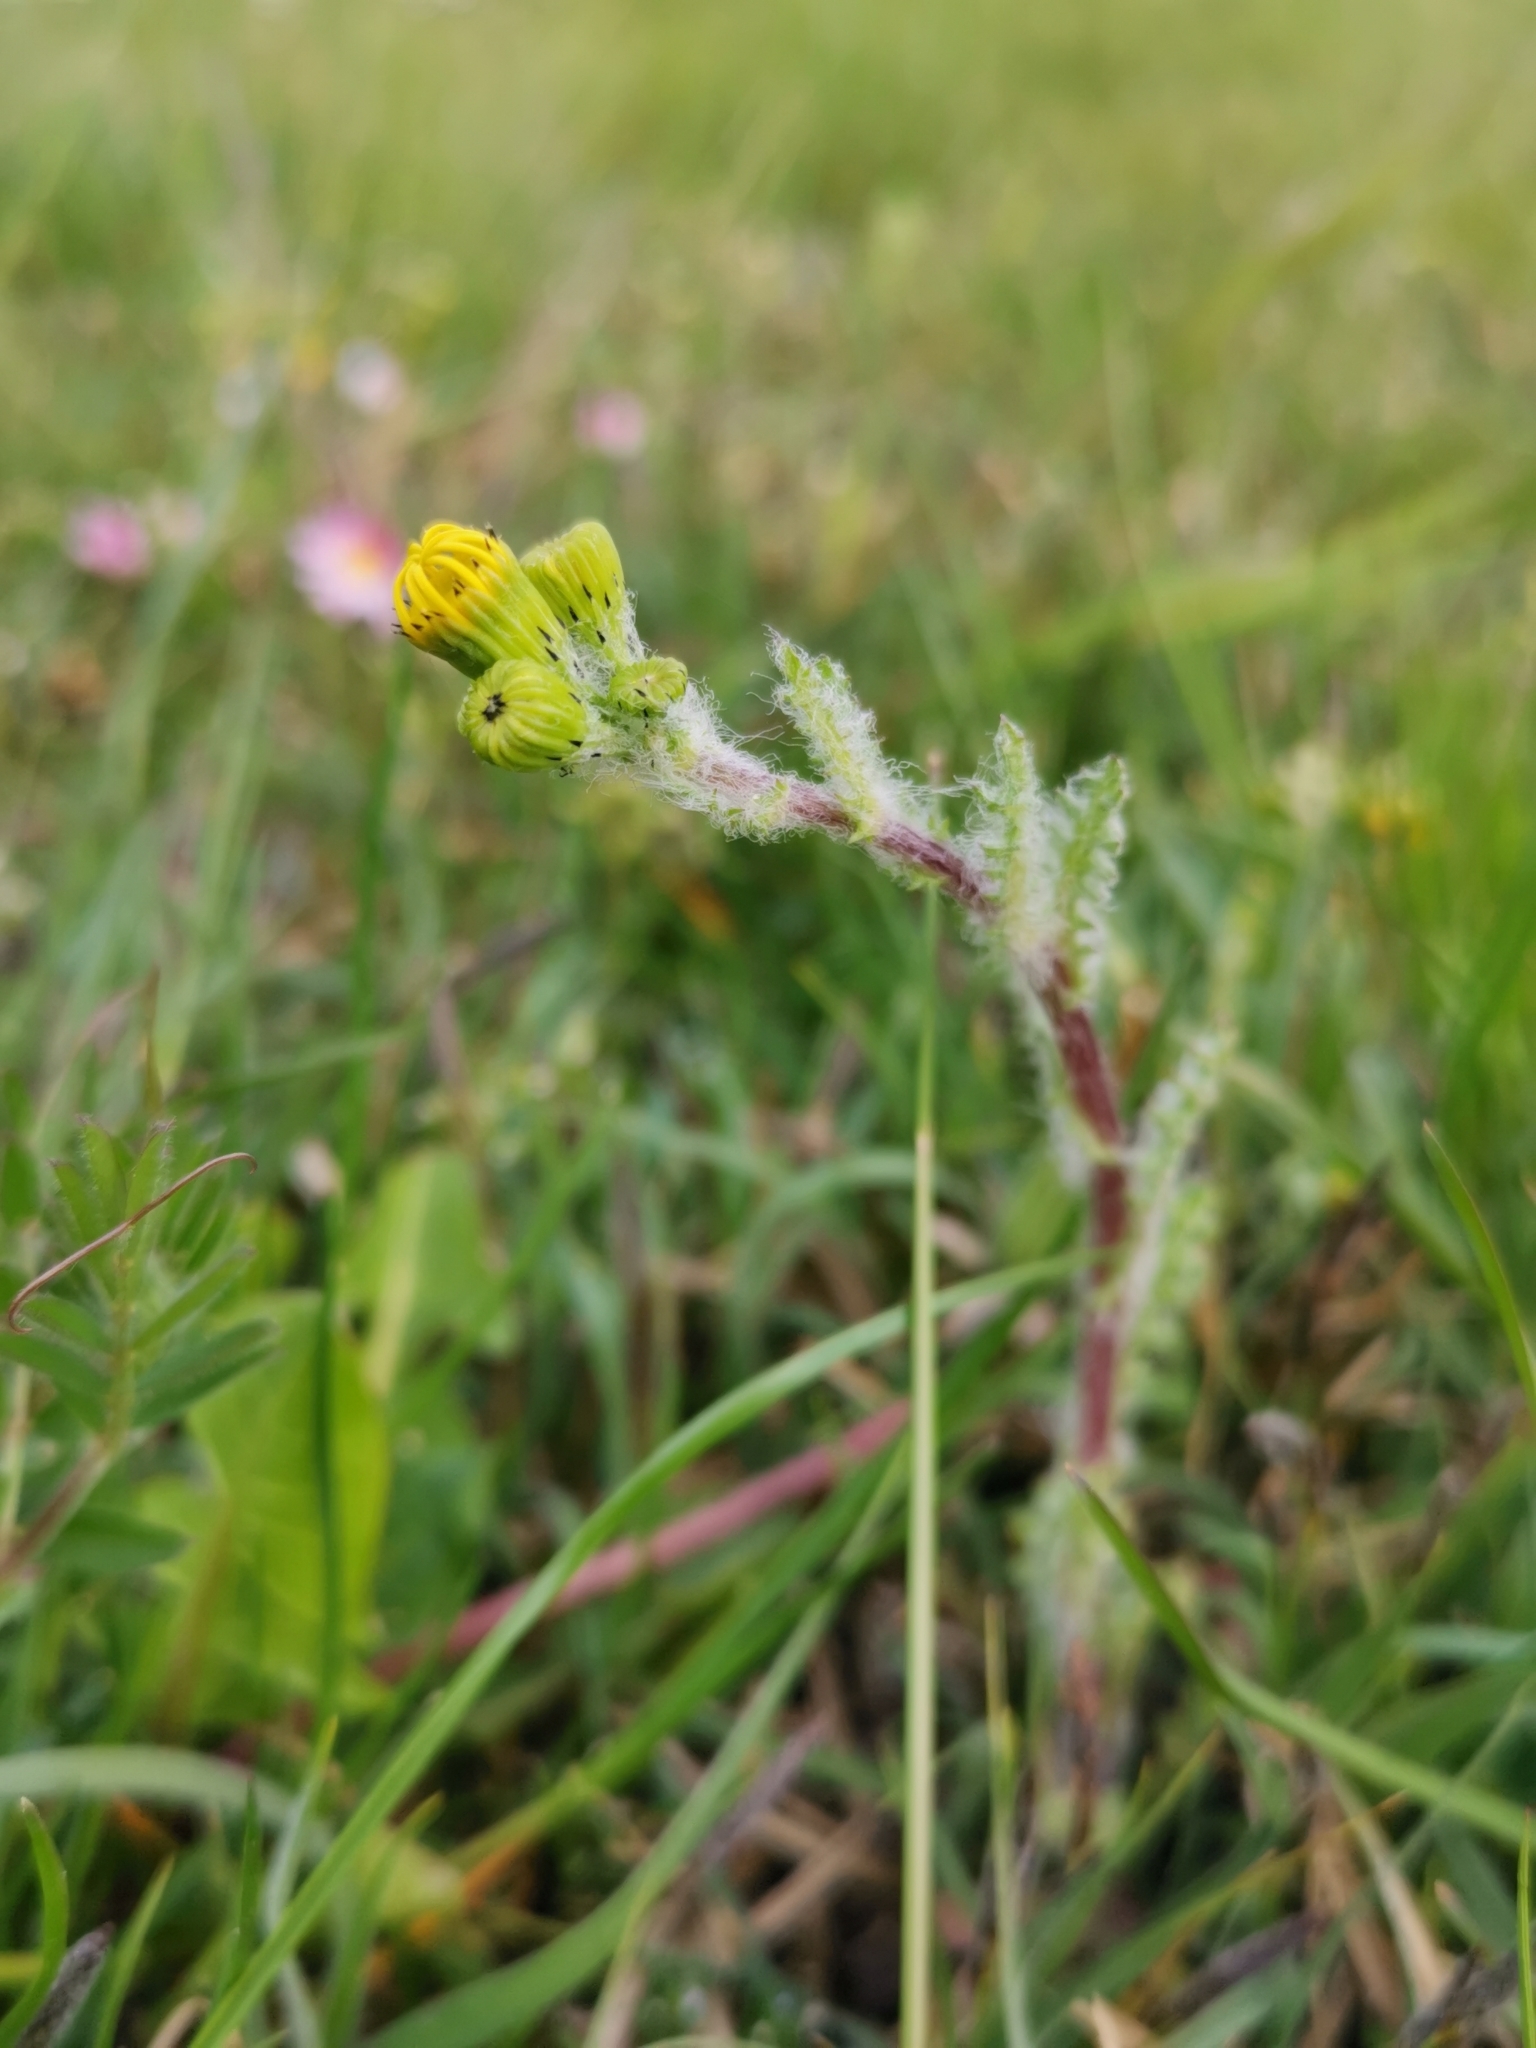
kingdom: Plantae
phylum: Tracheophyta
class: Magnoliopsida
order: Asterales
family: Asteraceae
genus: Senecio
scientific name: Senecio vernalis
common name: Eastern groundsel
